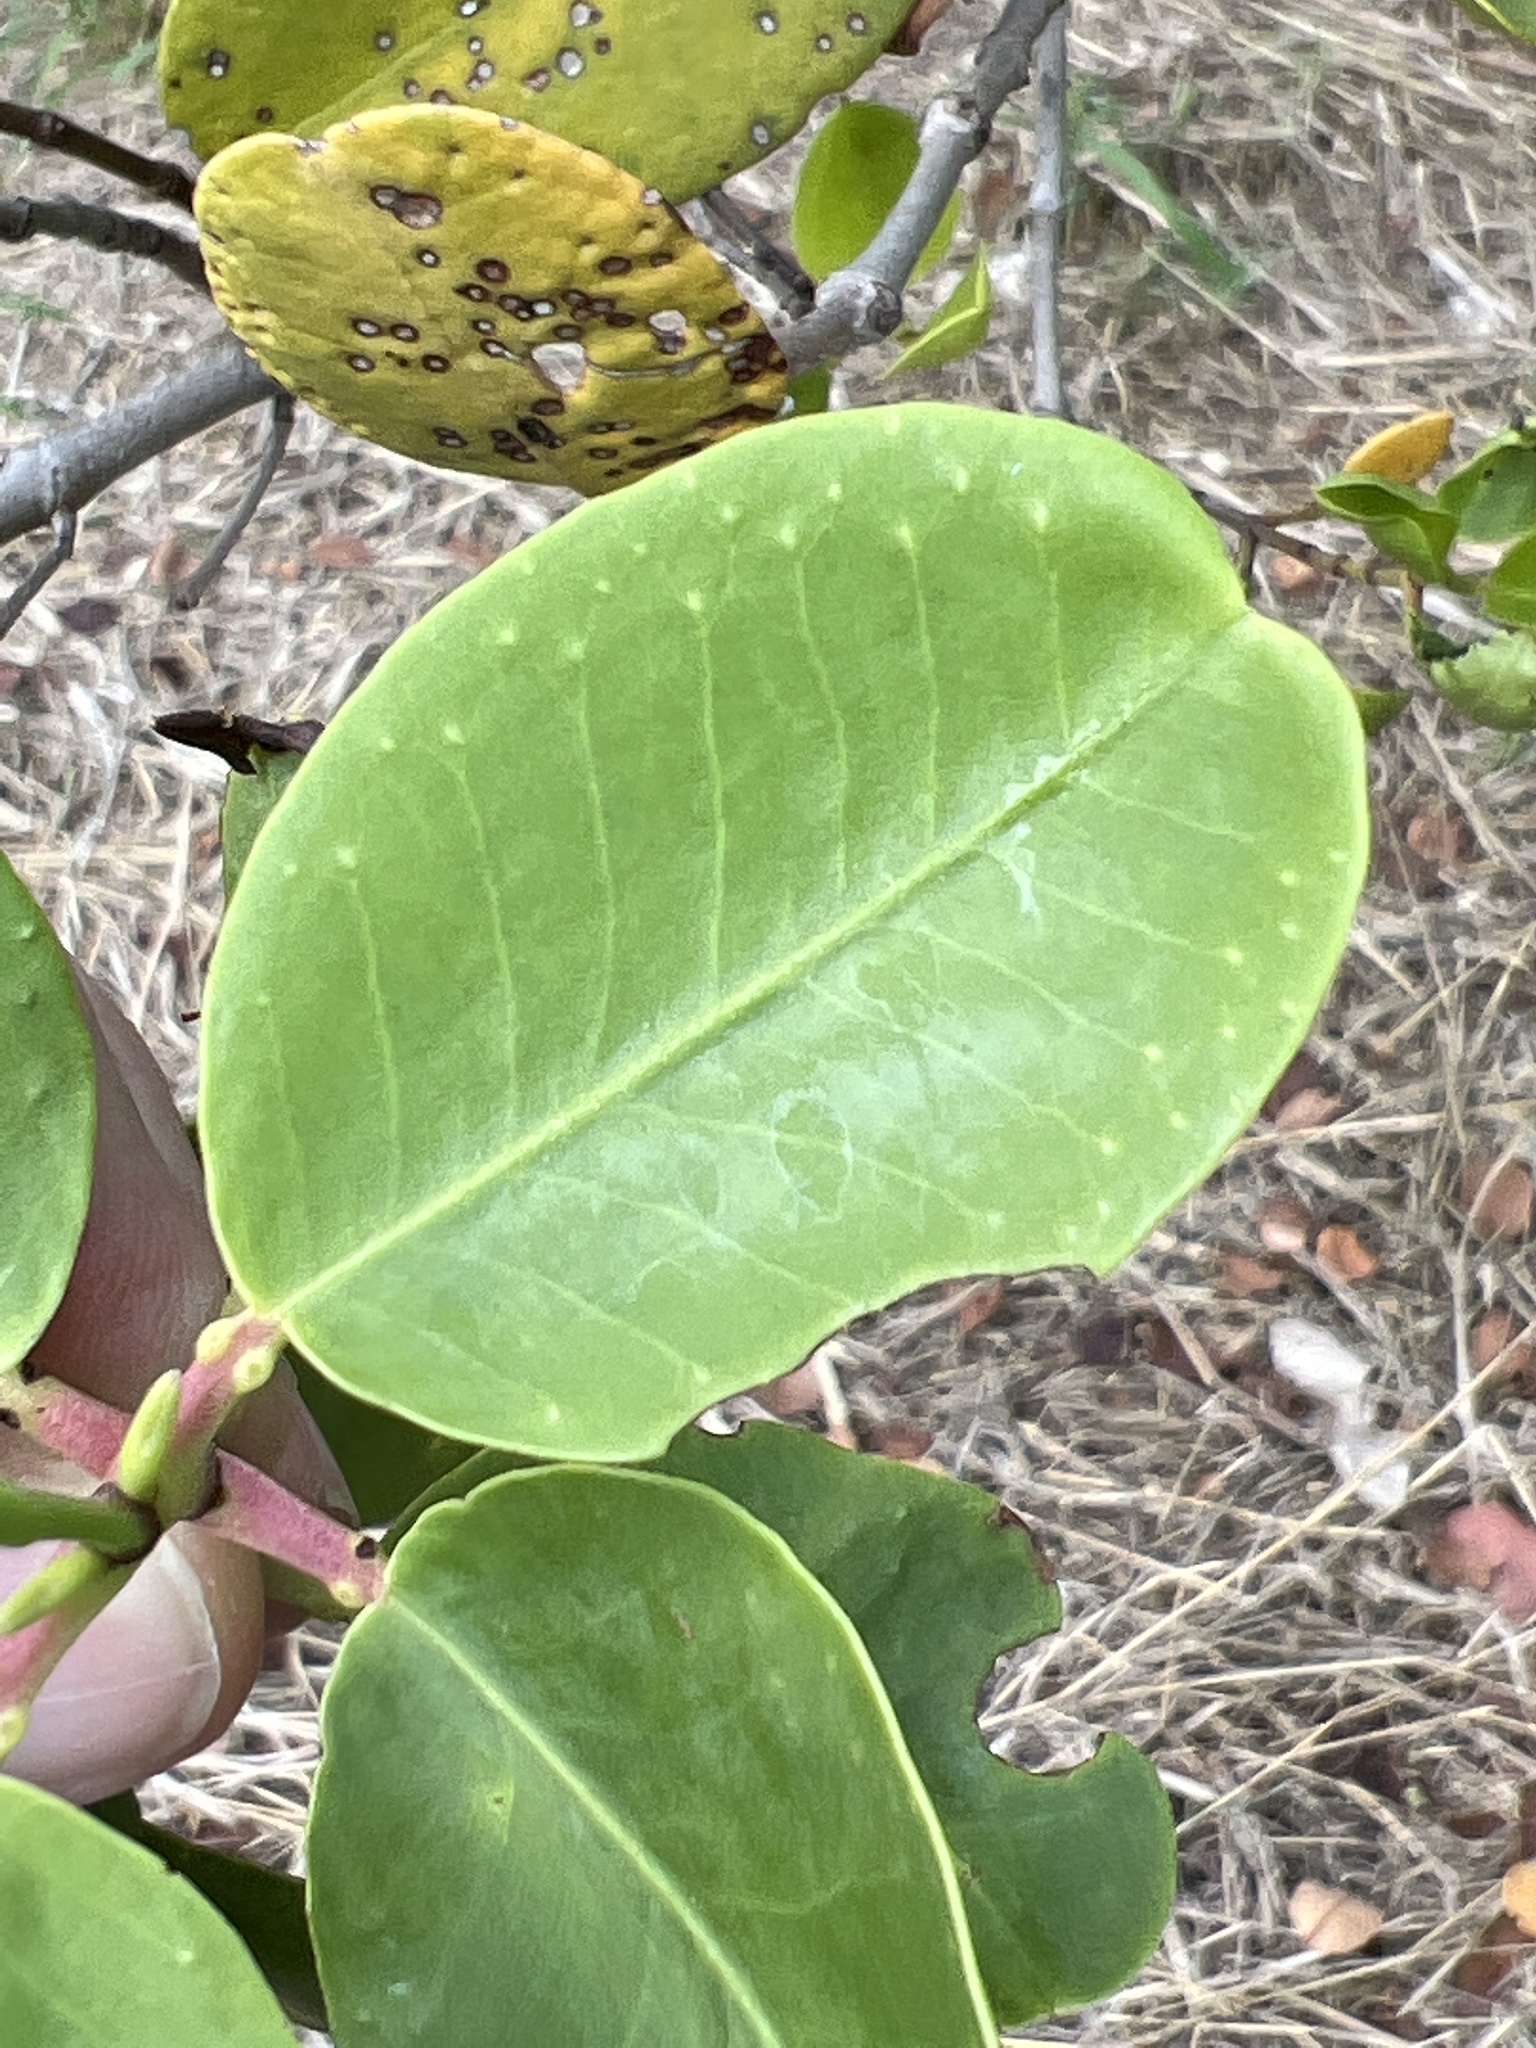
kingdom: Plantae
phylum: Tracheophyta
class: Magnoliopsida
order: Myrtales
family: Combretaceae
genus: Laguncularia
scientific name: Laguncularia racemosa
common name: White mangrove
